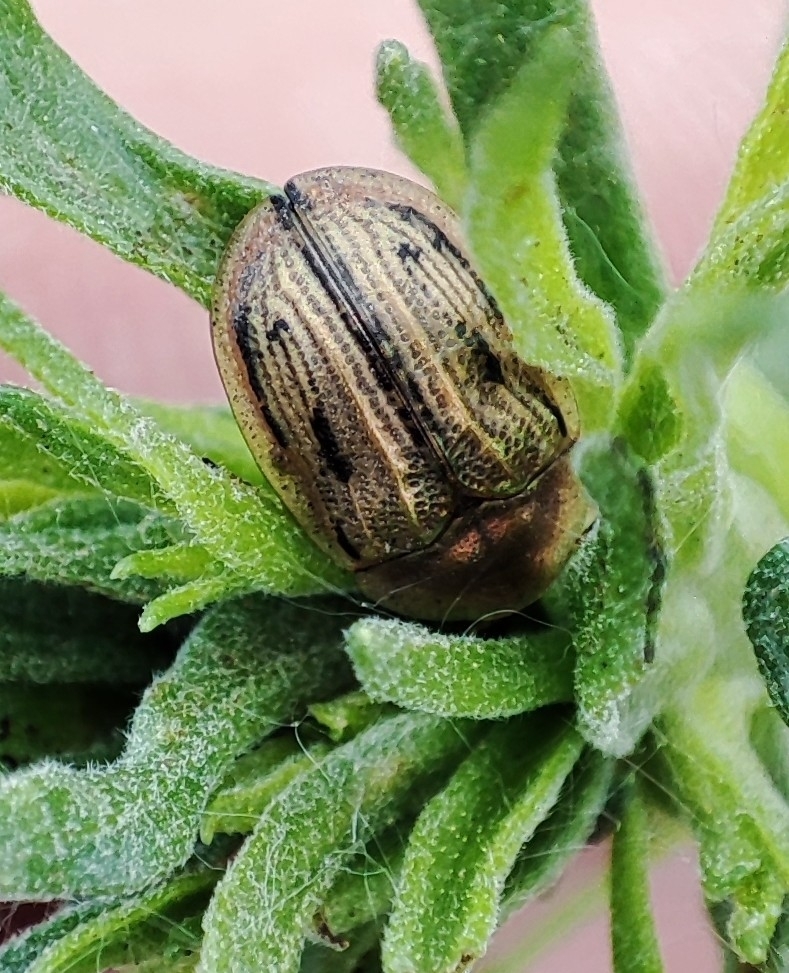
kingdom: Animalia
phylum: Arthropoda
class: Insecta
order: Coleoptera
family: Chrysomelidae
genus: Cassida
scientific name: Cassida lineola
